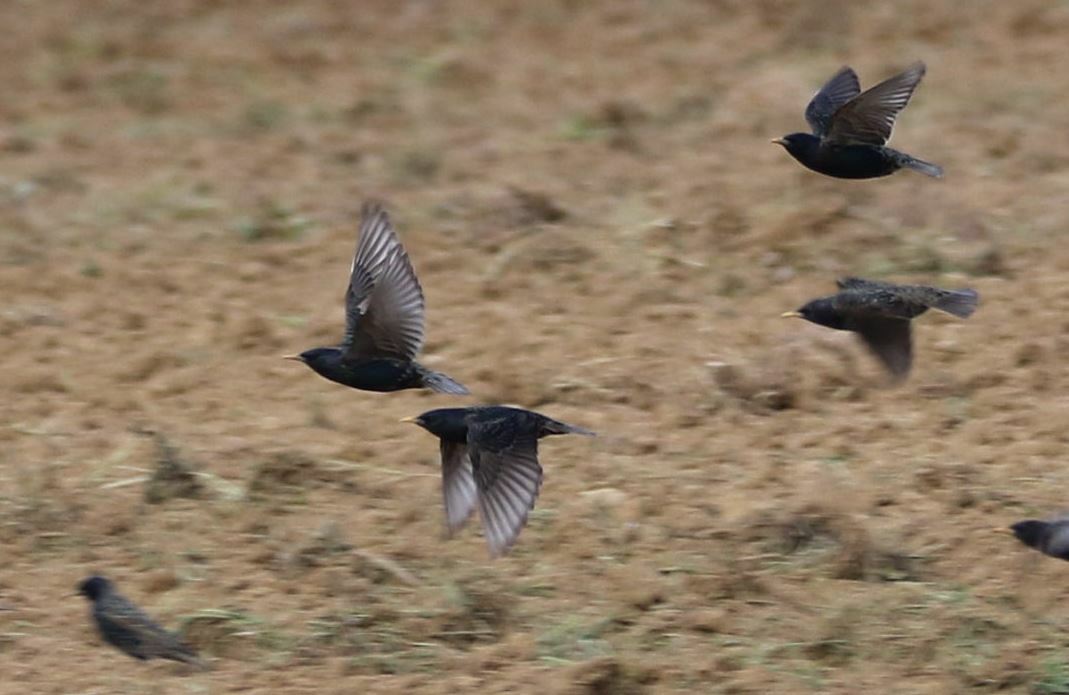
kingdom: Animalia
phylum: Chordata
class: Aves
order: Passeriformes
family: Sturnidae
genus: Sturnus
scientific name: Sturnus vulgaris
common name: Common starling
